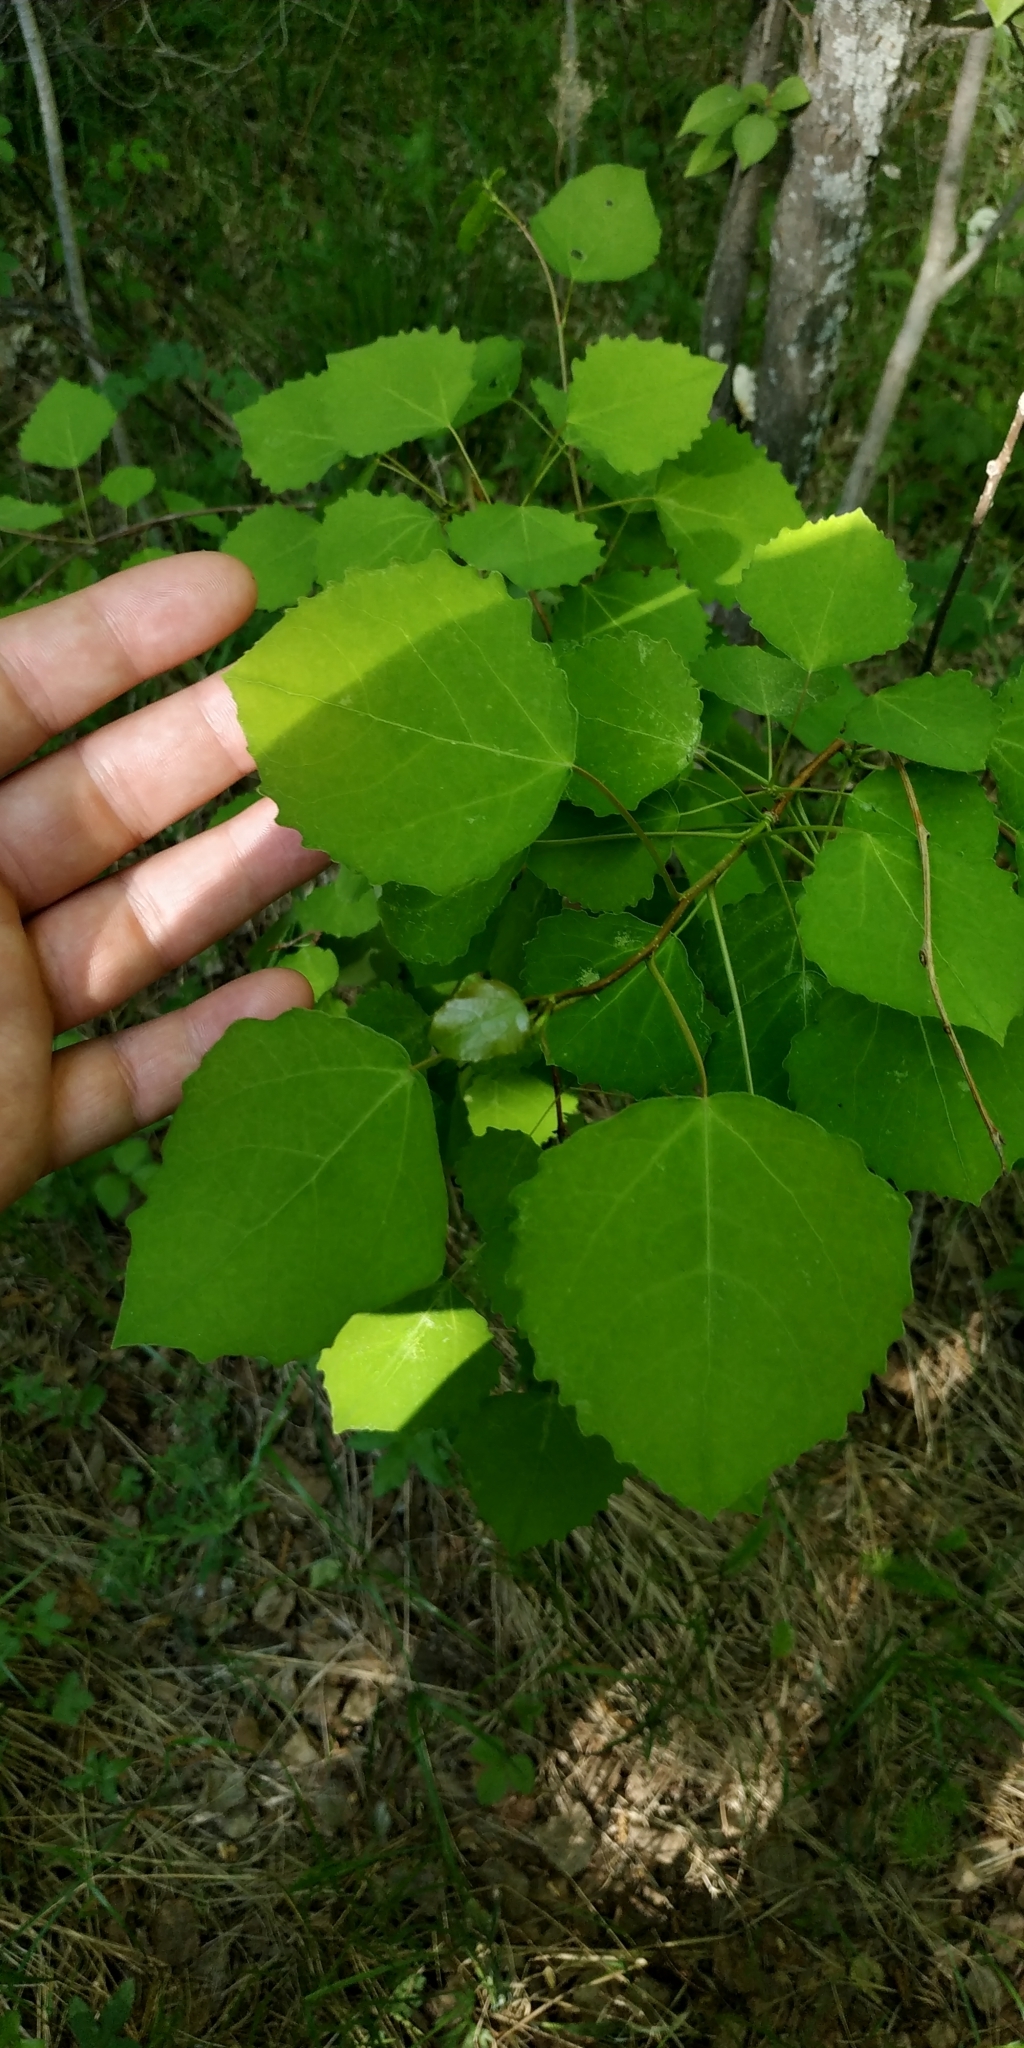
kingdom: Plantae
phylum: Tracheophyta
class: Magnoliopsida
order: Malpighiales
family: Salicaceae
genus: Populus
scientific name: Populus tremula
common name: European aspen
